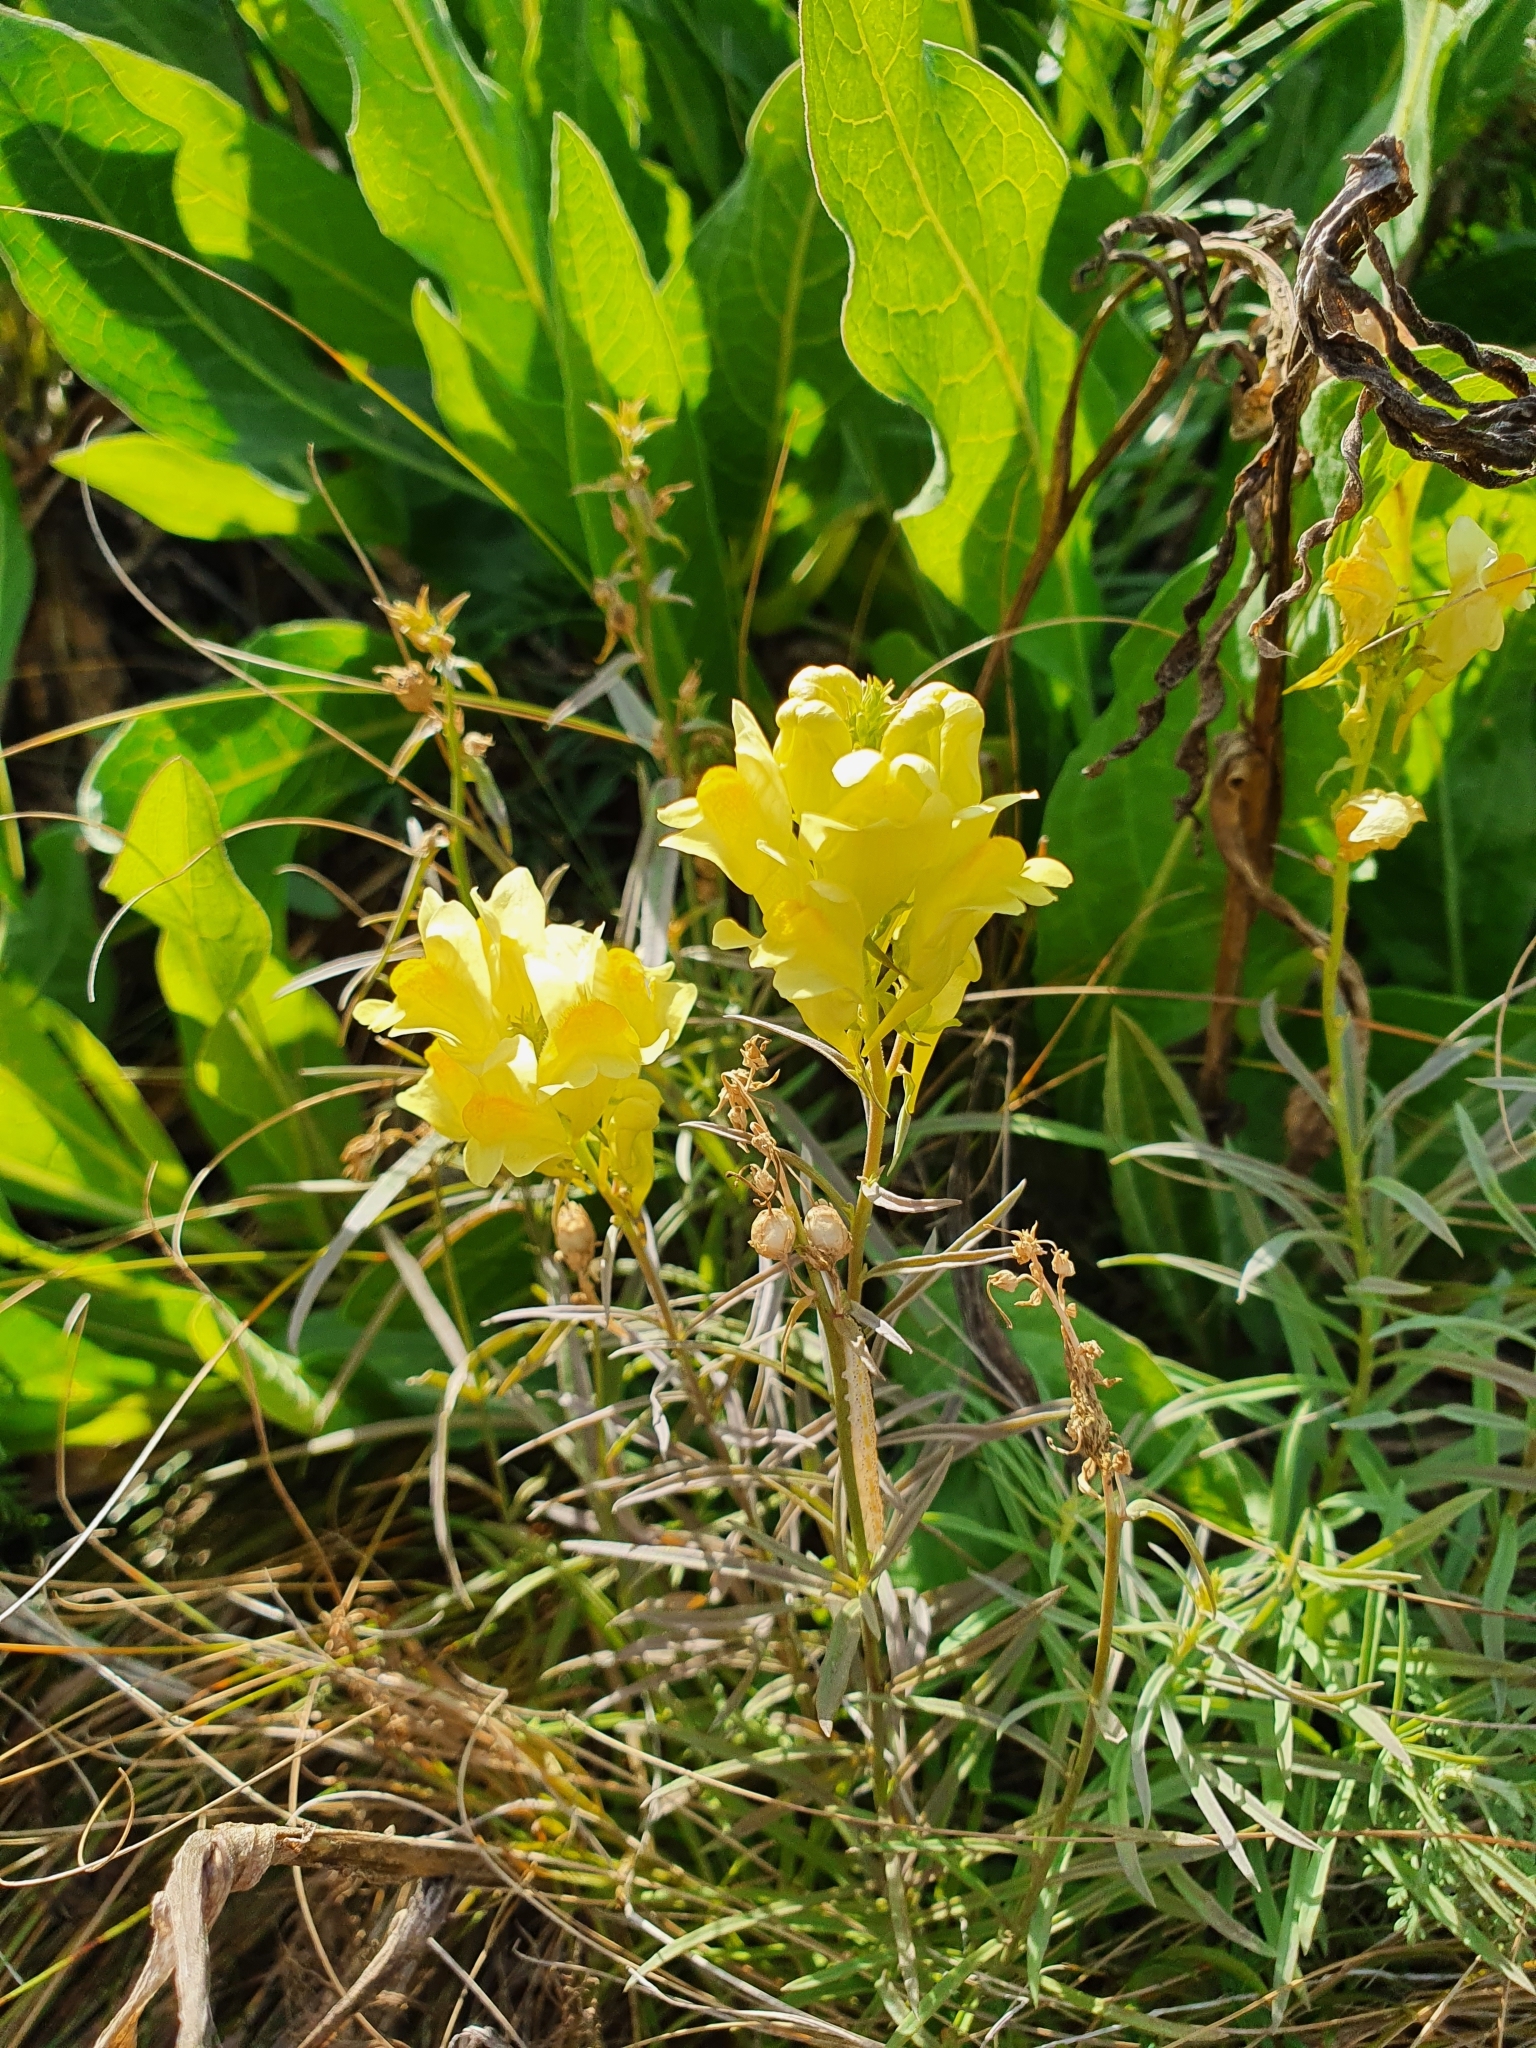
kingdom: Plantae
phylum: Tracheophyta
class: Magnoliopsida
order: Lamiales
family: Plantaginaceae
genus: Linaria
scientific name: Linaria vulgaris
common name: Butter and eggs
